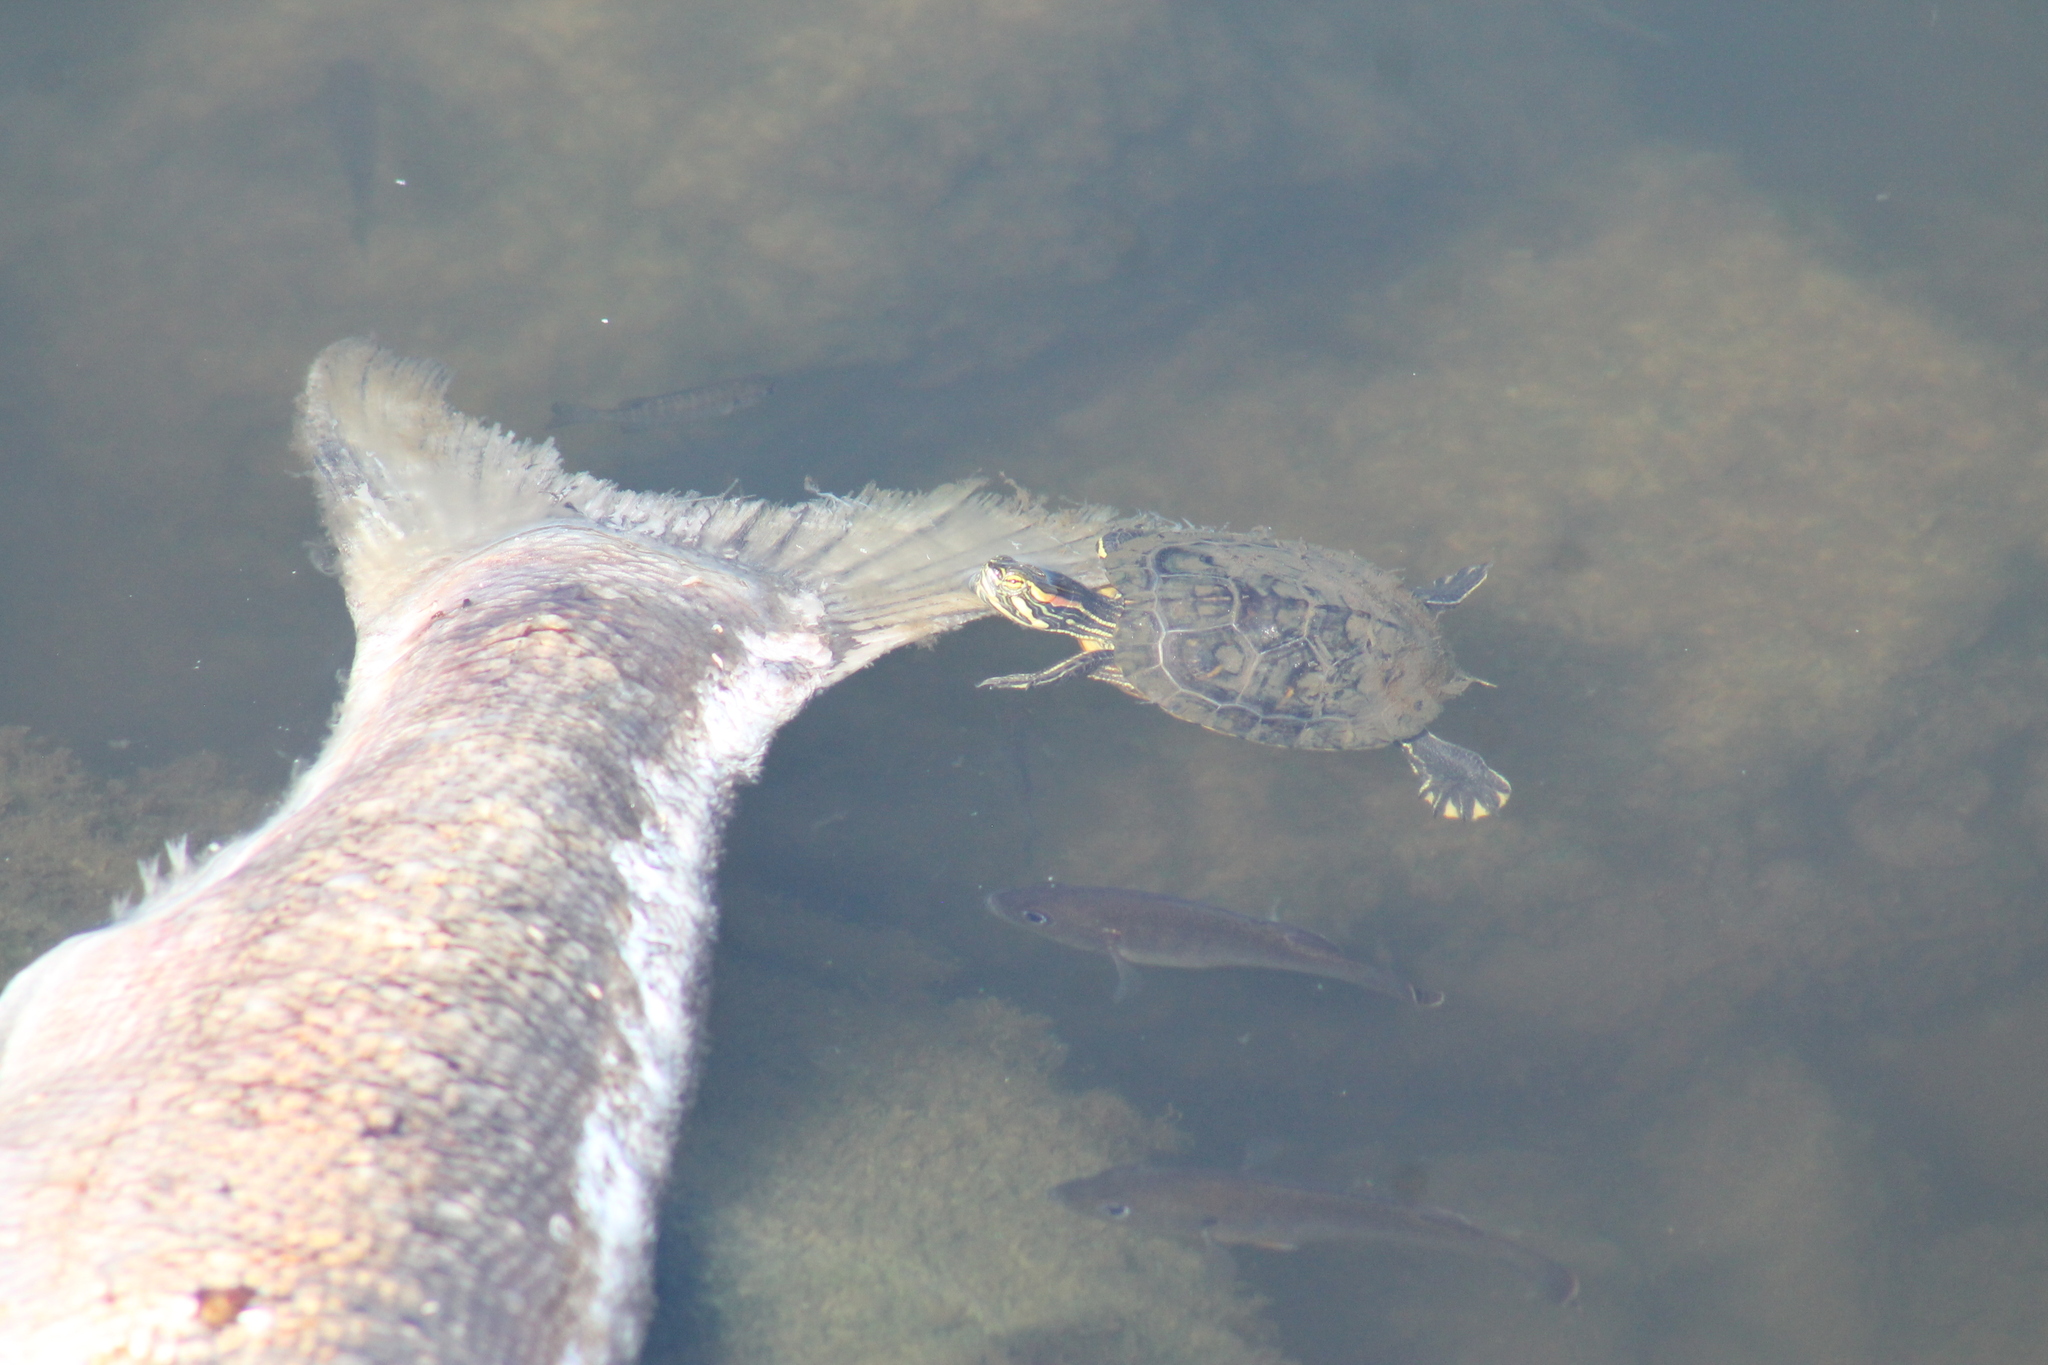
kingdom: Animalia
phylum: Chordata
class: Testudines
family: Emydidae
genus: Trachemys
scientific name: Trachemys scripta
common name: Slider
